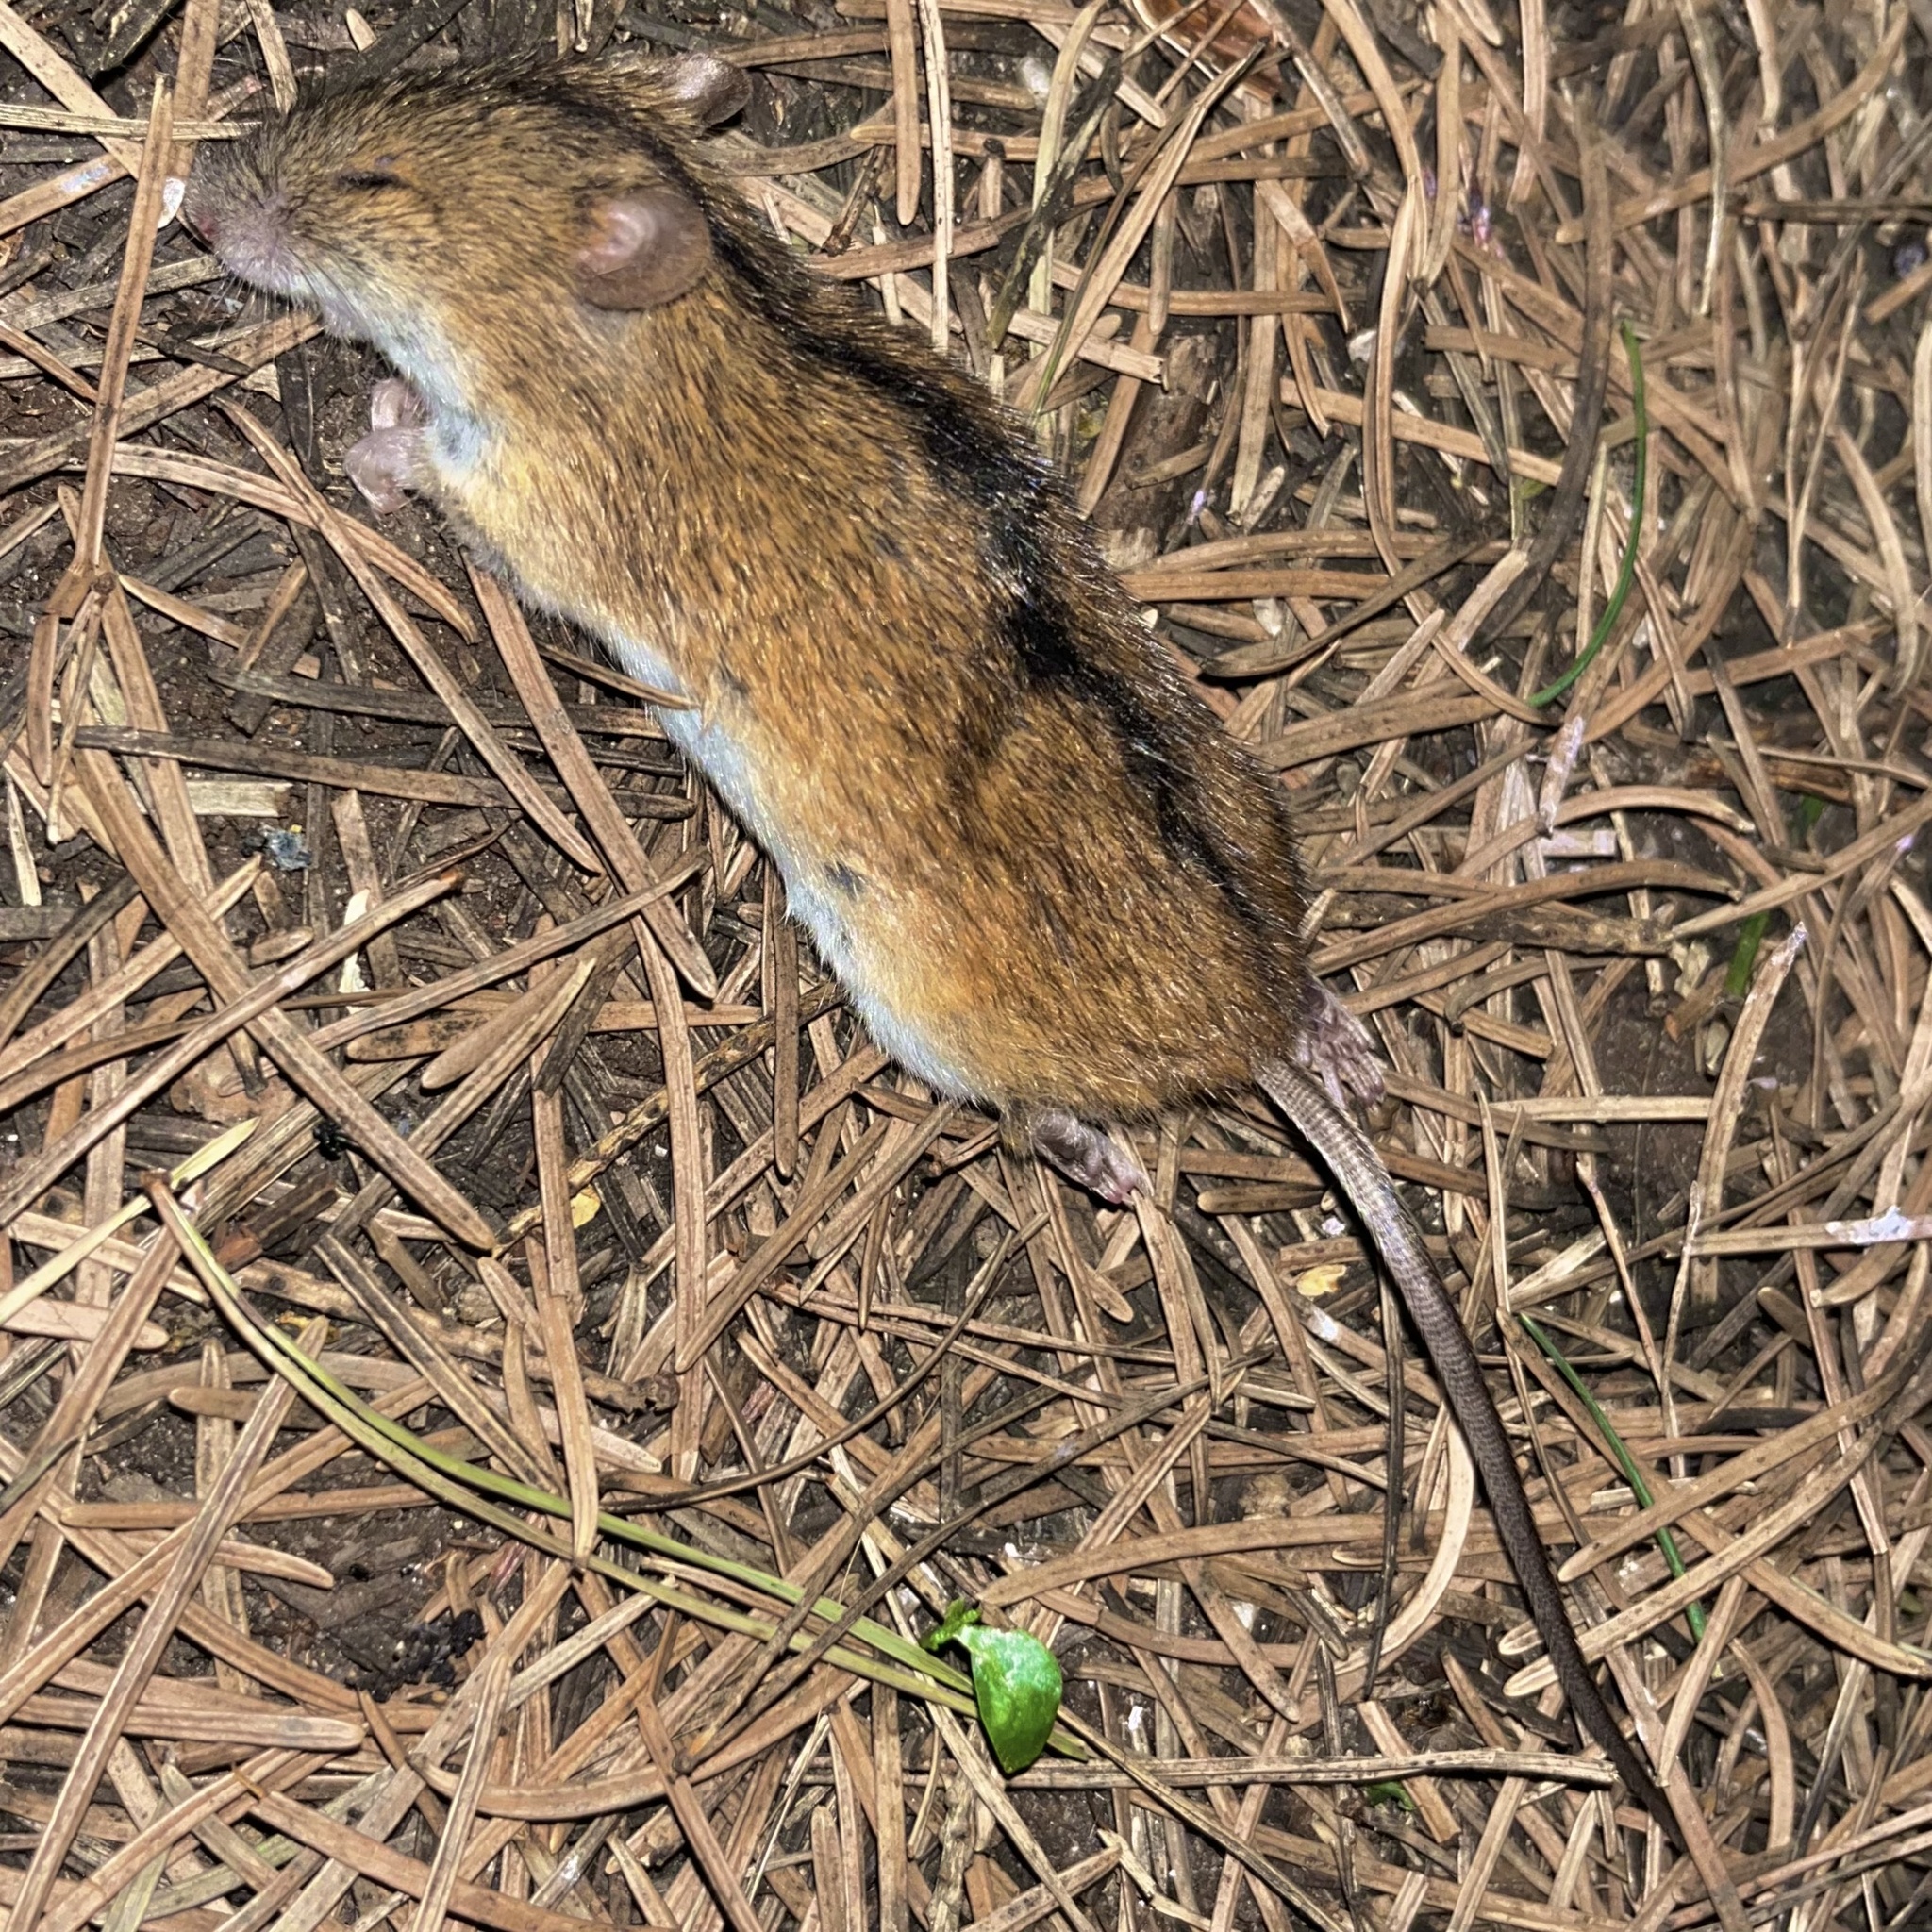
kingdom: Animalia
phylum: Chordata
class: Mammalia
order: Rodentia
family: Muridae
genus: Apodemus
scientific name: Apodemus agrarius
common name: Striped field mouse
